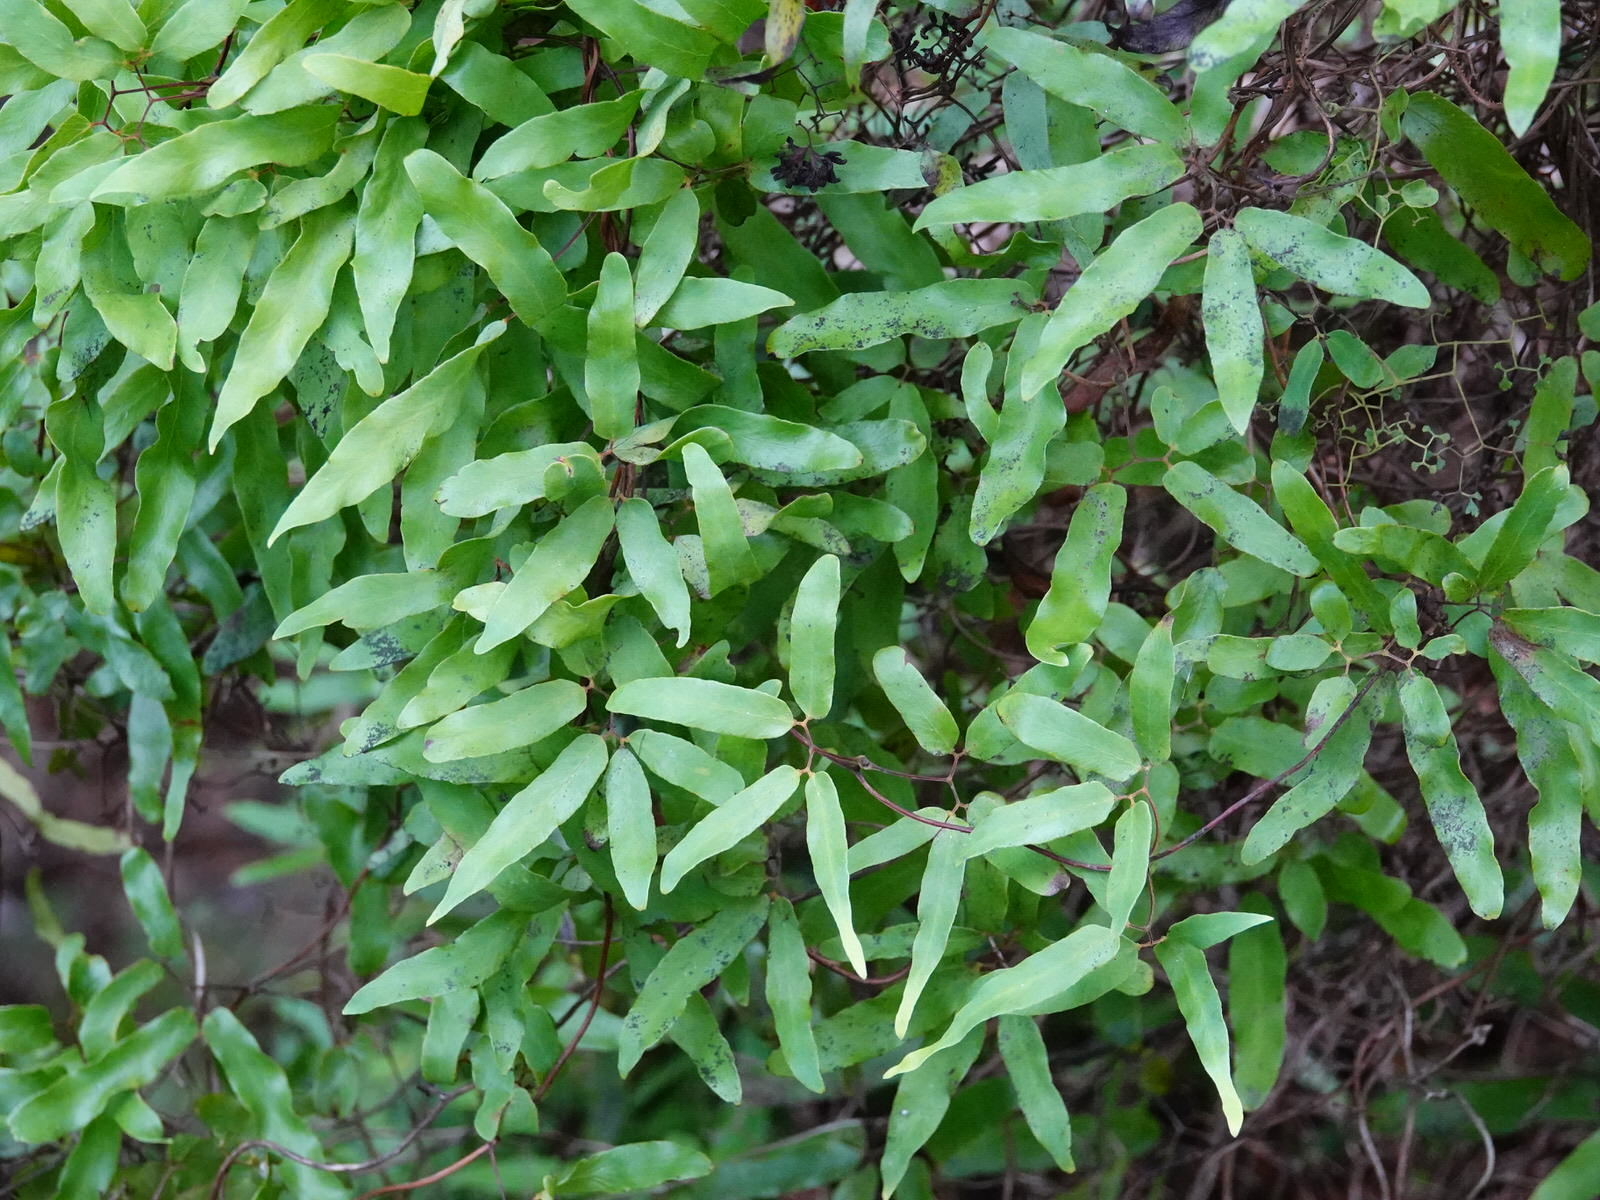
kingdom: Plantae
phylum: Tracheophyta
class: Polypodiopsida
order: Schizaeales
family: Lygodiaceae
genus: Lygodium
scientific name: Lygodium articulatum
